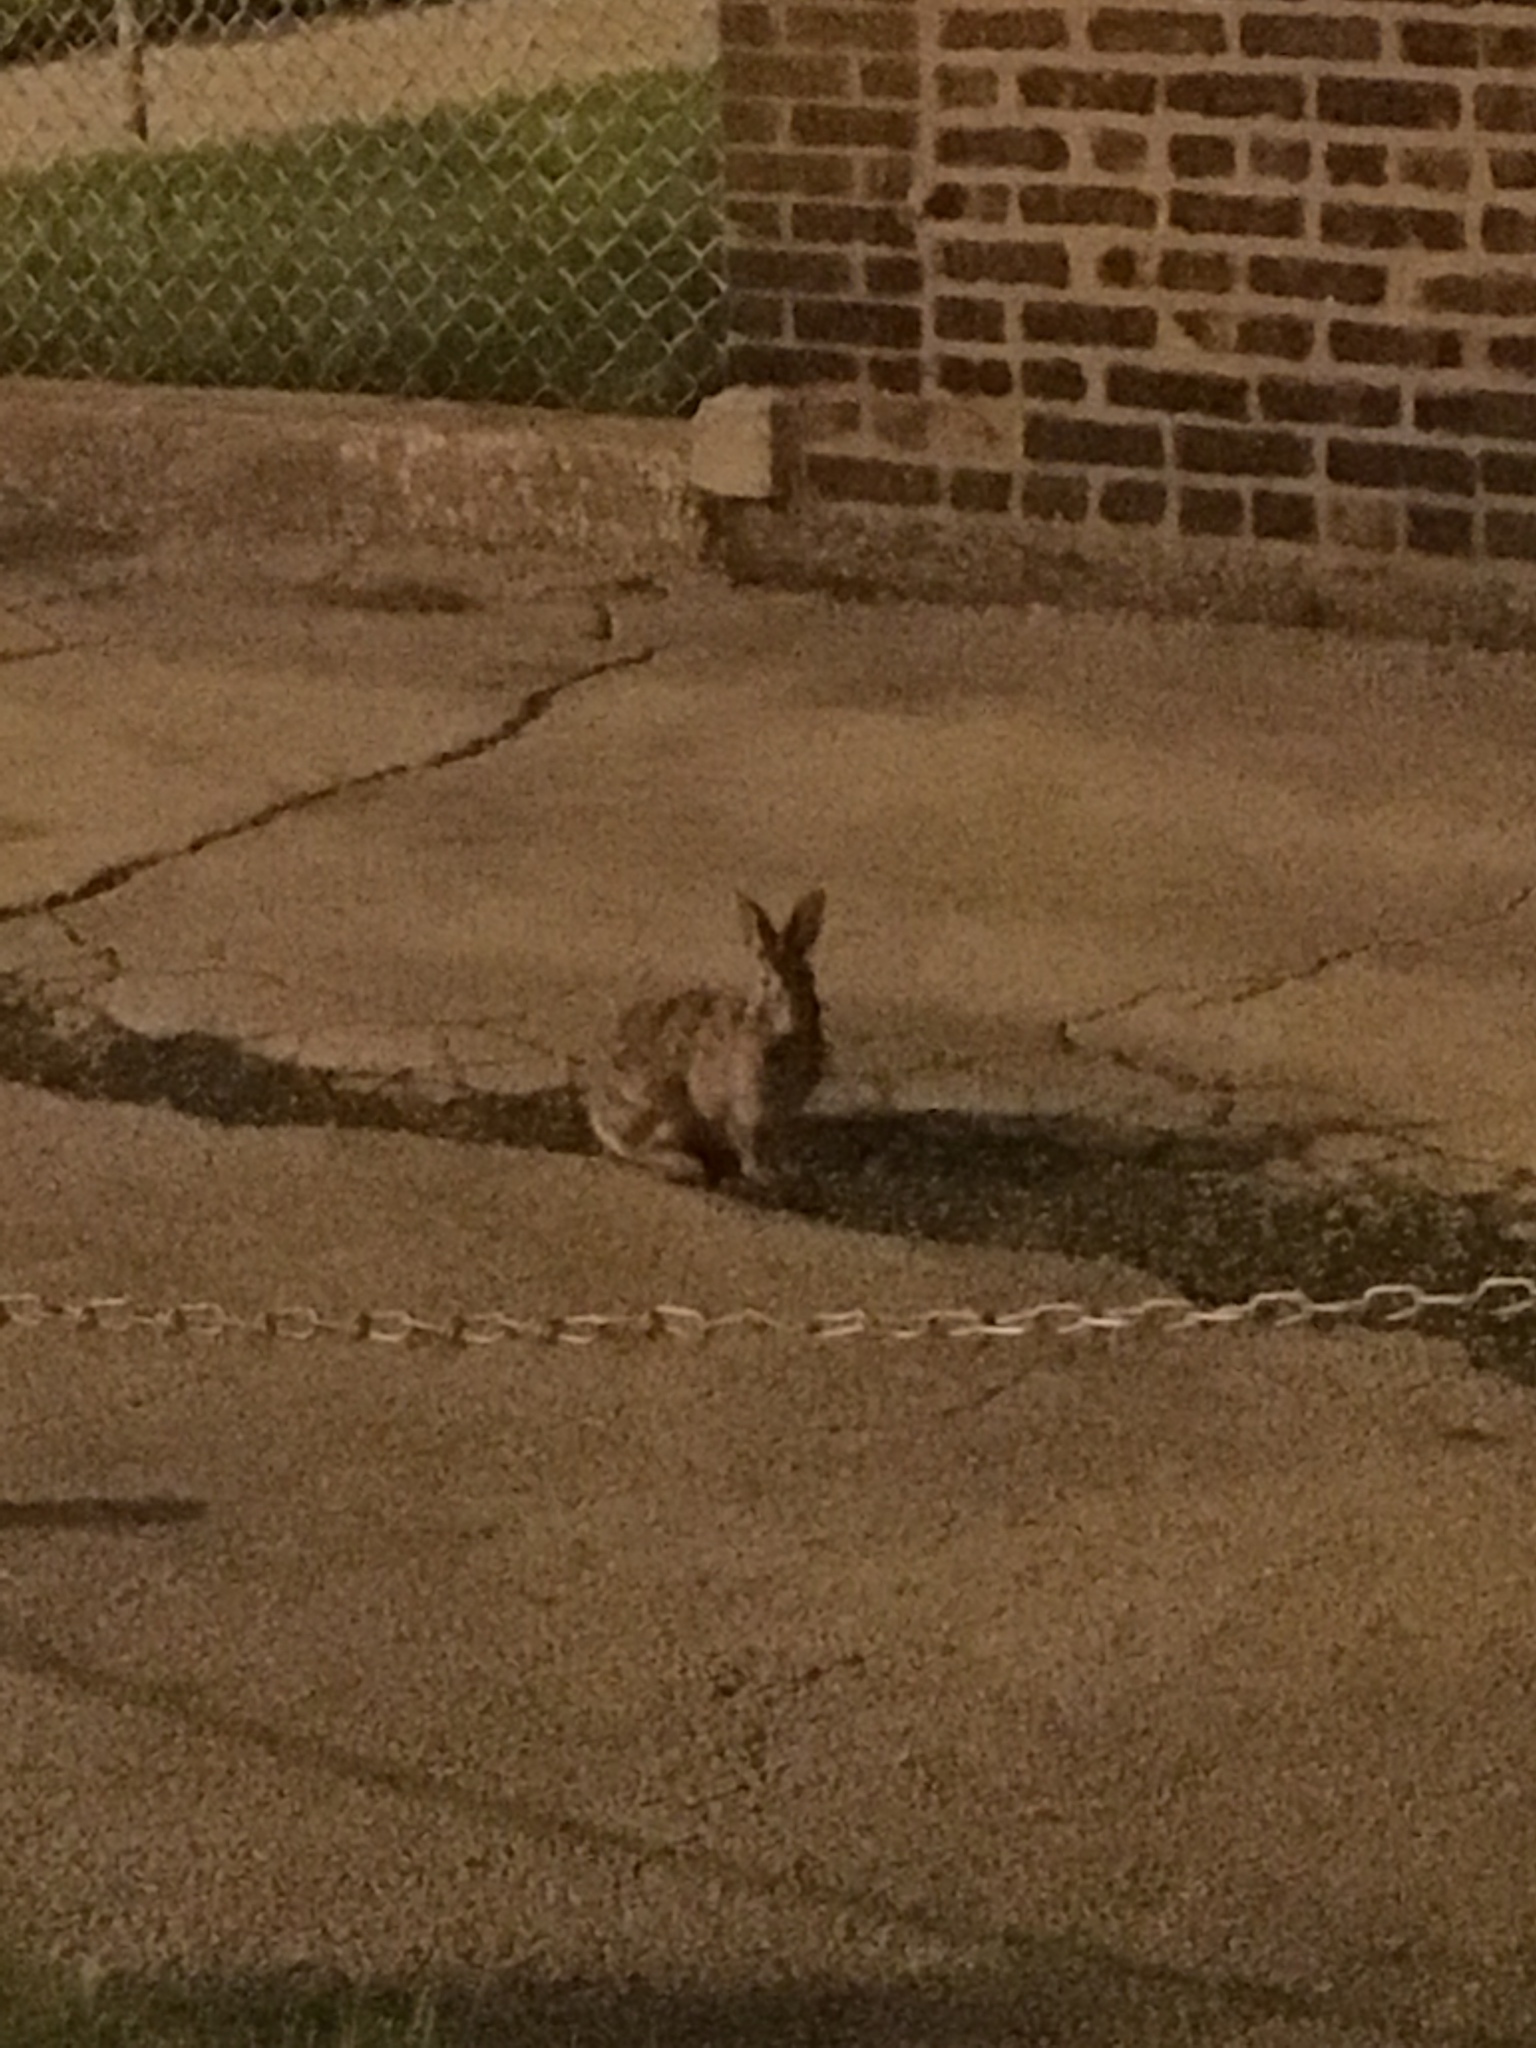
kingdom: Animalia
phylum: Chordata
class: Mammalia
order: Lagomorpha
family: Leporidae
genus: Sylvilagus
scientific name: Sylvilagus floridanus
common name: Eastern cottontail
